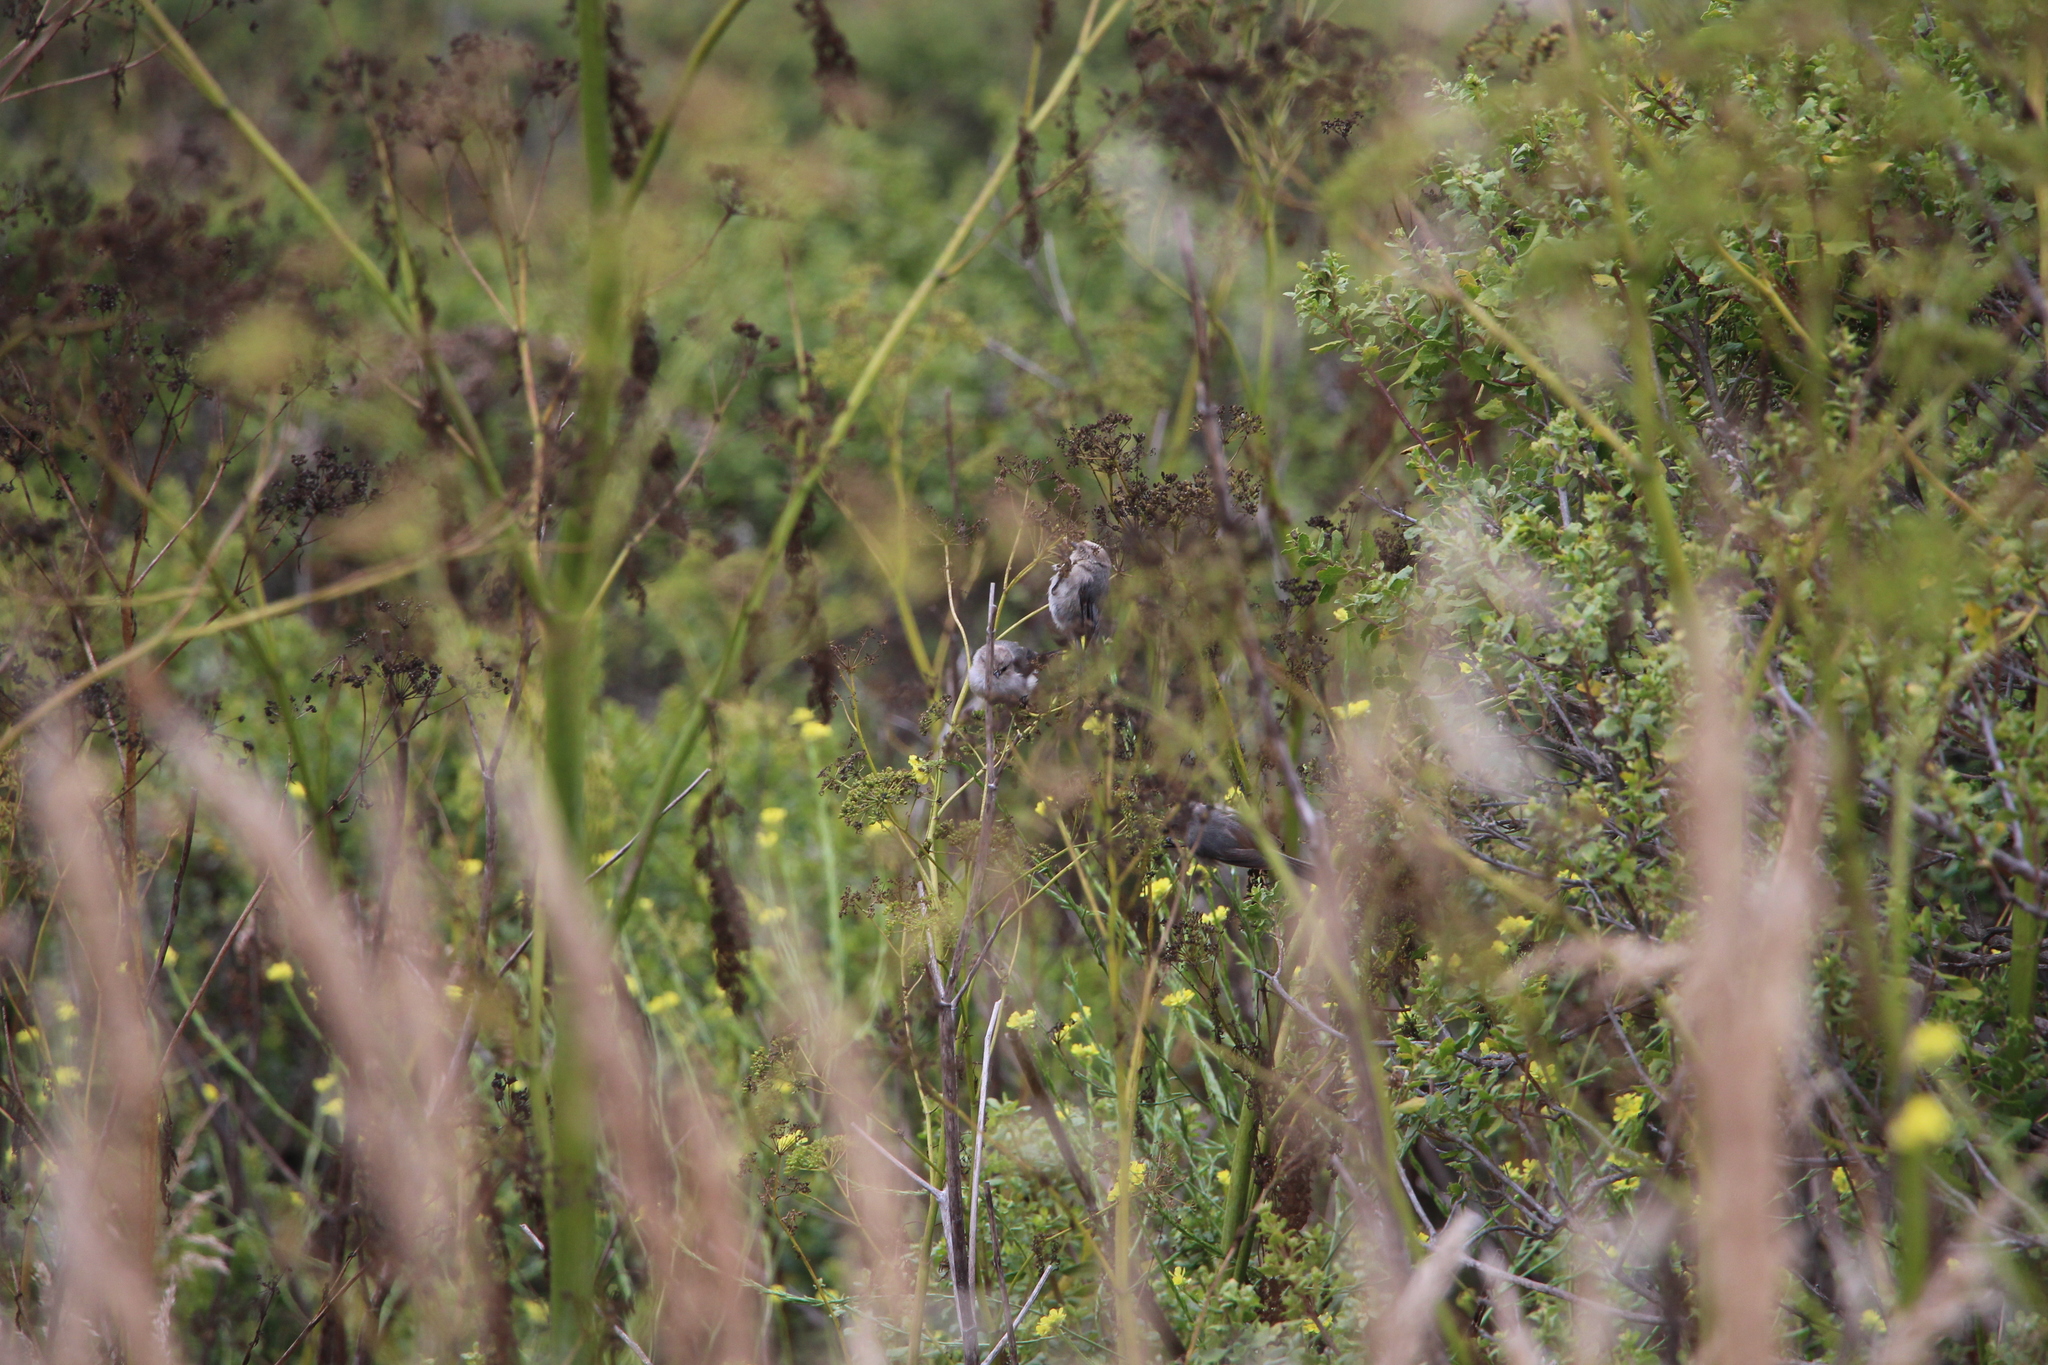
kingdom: Animalia
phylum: Chordata
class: Aves
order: Passeriformes
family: Aegithalidae
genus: Psaltriparus
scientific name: Psaltriparus minimus
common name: American bushtit
